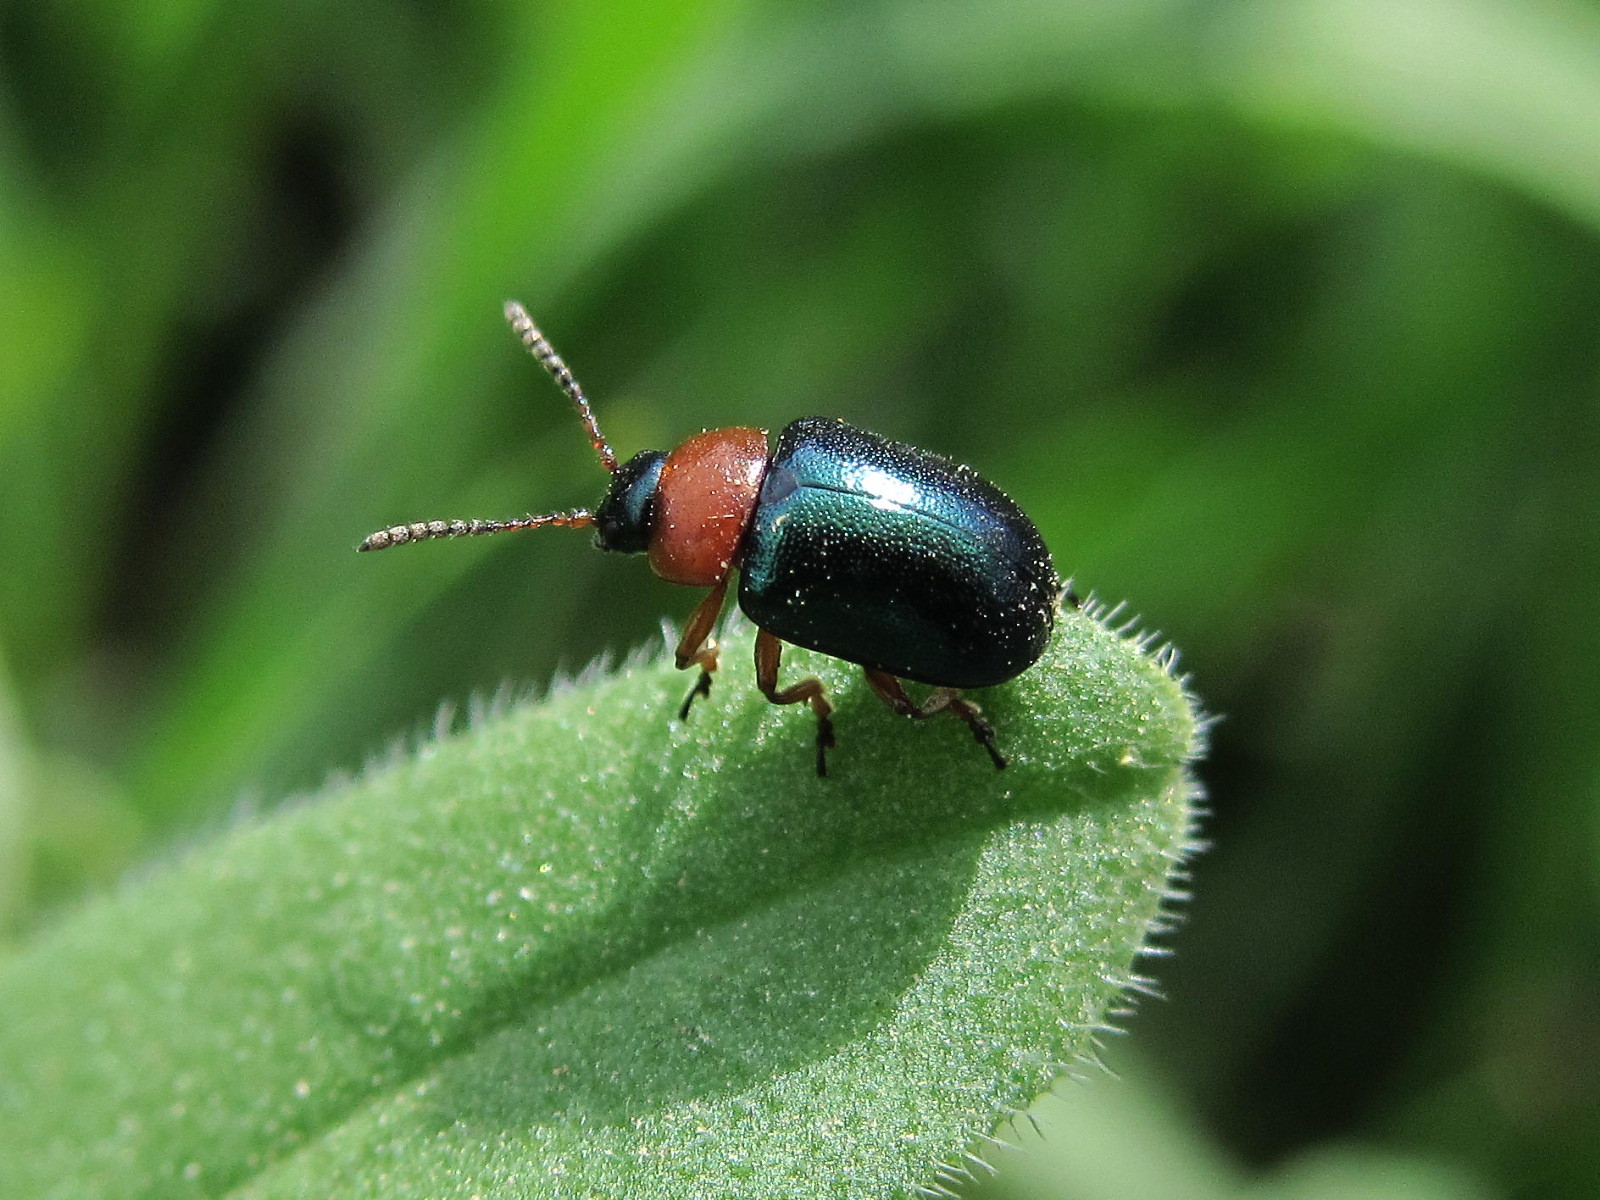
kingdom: Animalia
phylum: Arthropoda
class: Insecta
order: Coleoptera
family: Chrysomelidae
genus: Gastrophysa
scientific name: Gastrophysa polygoni
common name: Knotweed leaf beetle
